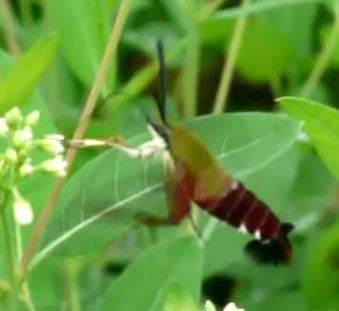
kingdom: Animalia
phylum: Arthropoda
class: Insecta
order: Lepidoptera
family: Sphingidae
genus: Hemaris
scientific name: Hemaris thysbe
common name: Common clear-wing
